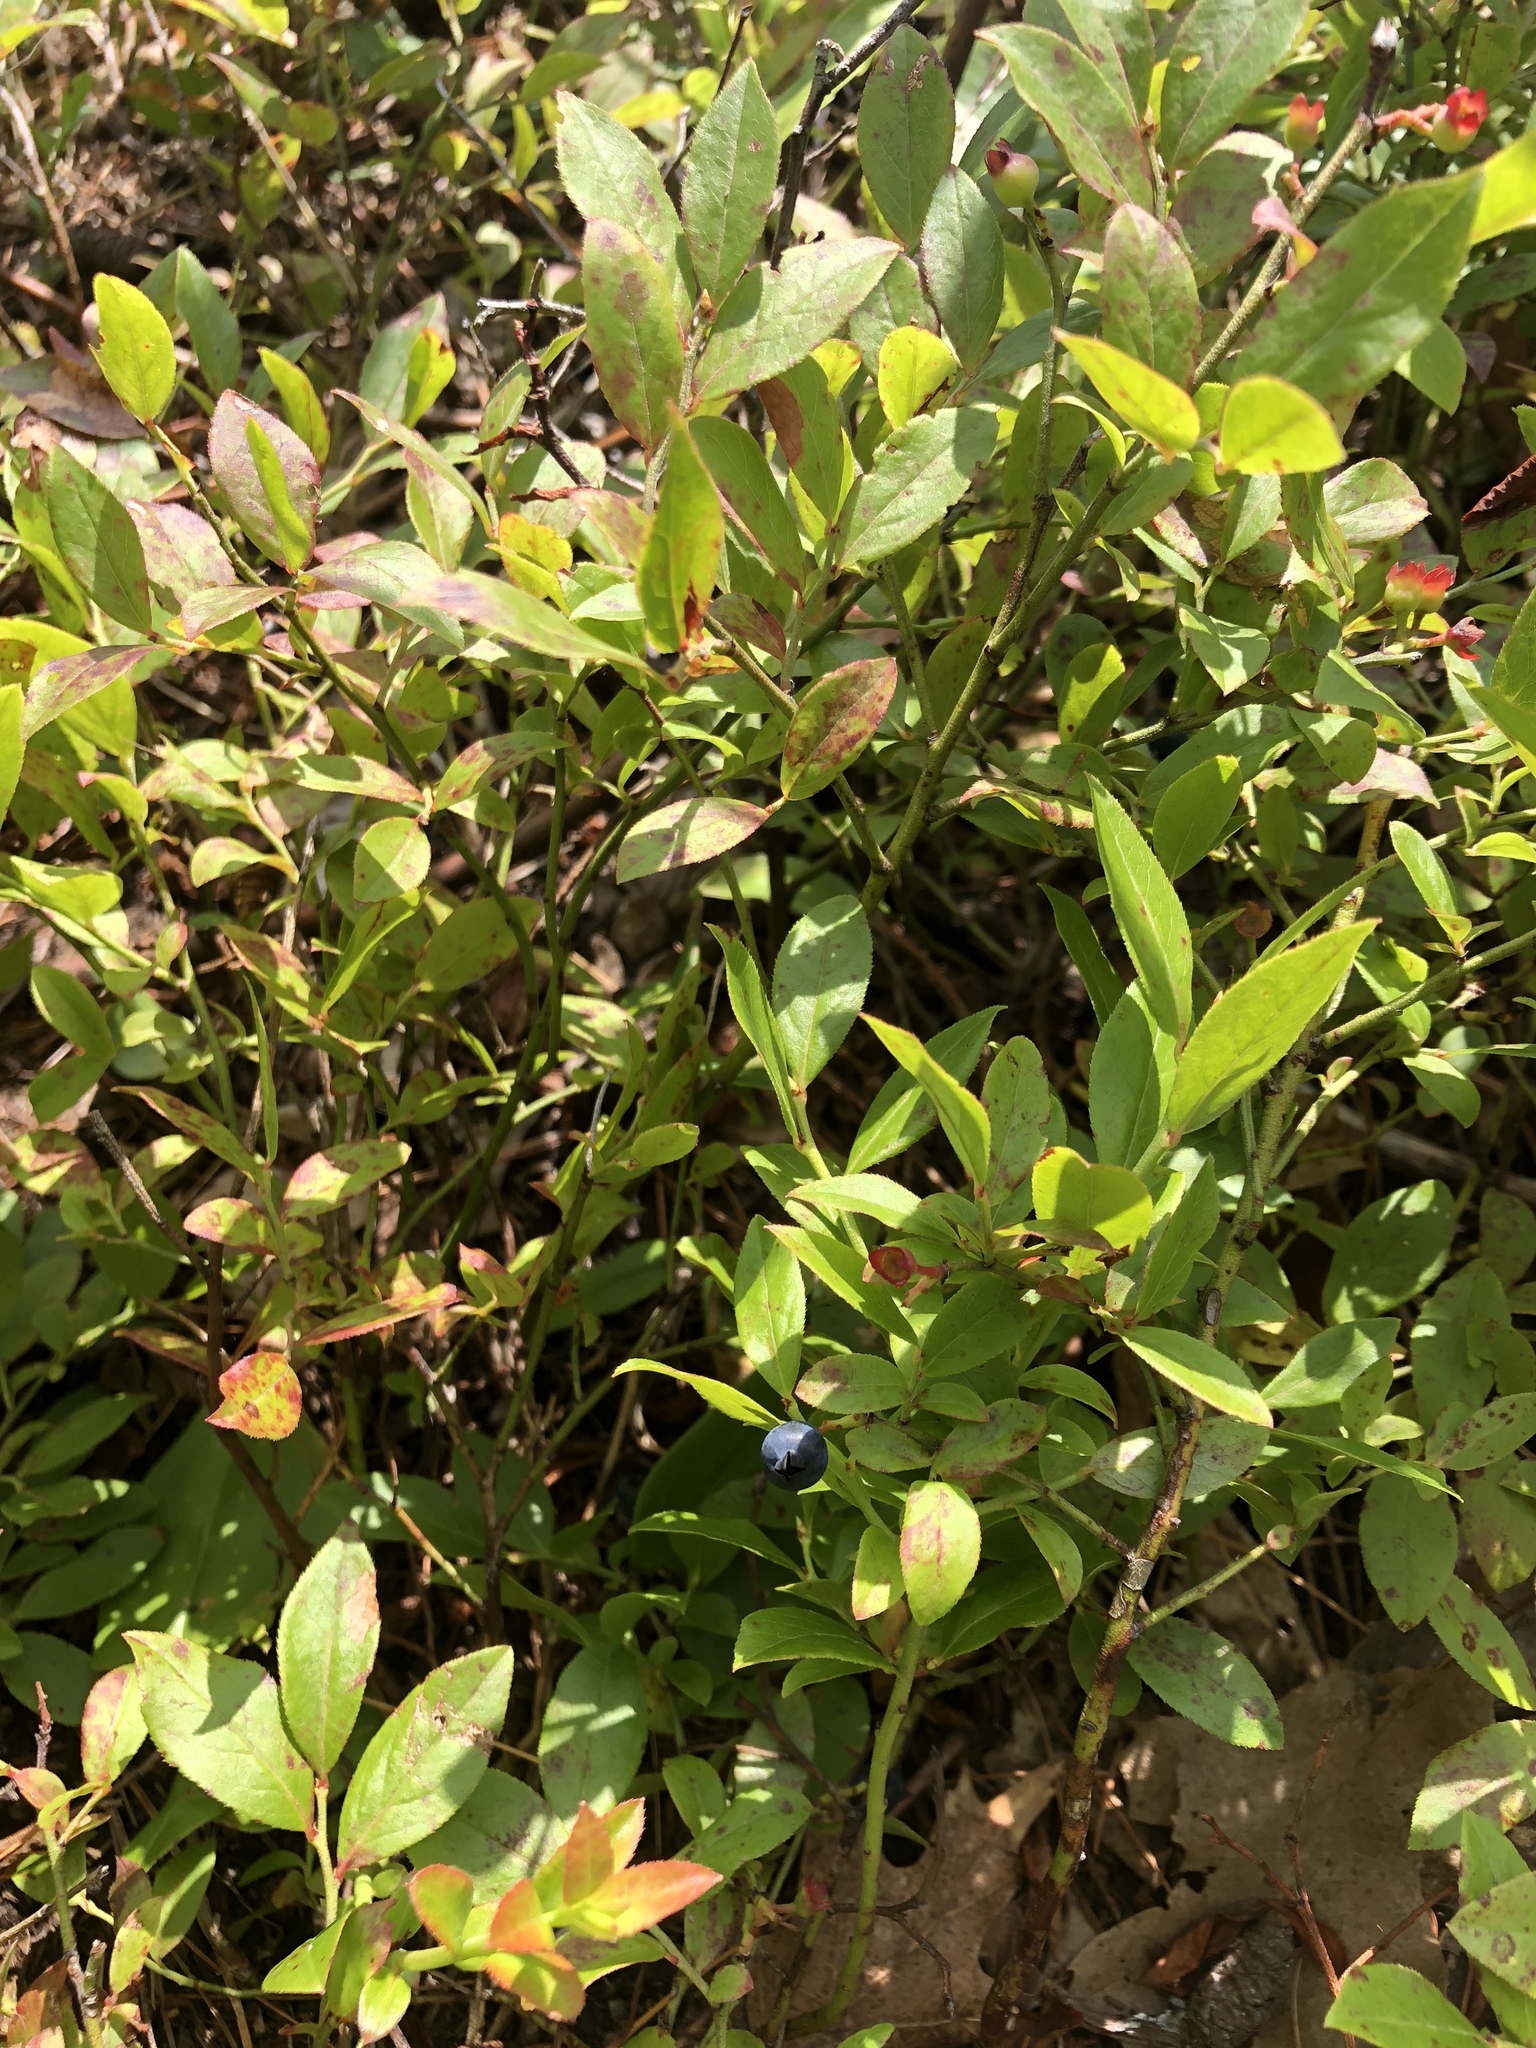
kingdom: Plantae
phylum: Tracheophyta
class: Magnoliopsida
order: Ericales
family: Ericaceae
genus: Vaccinium
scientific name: Vaccinium angustifolium
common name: Early lowbush blueberry
